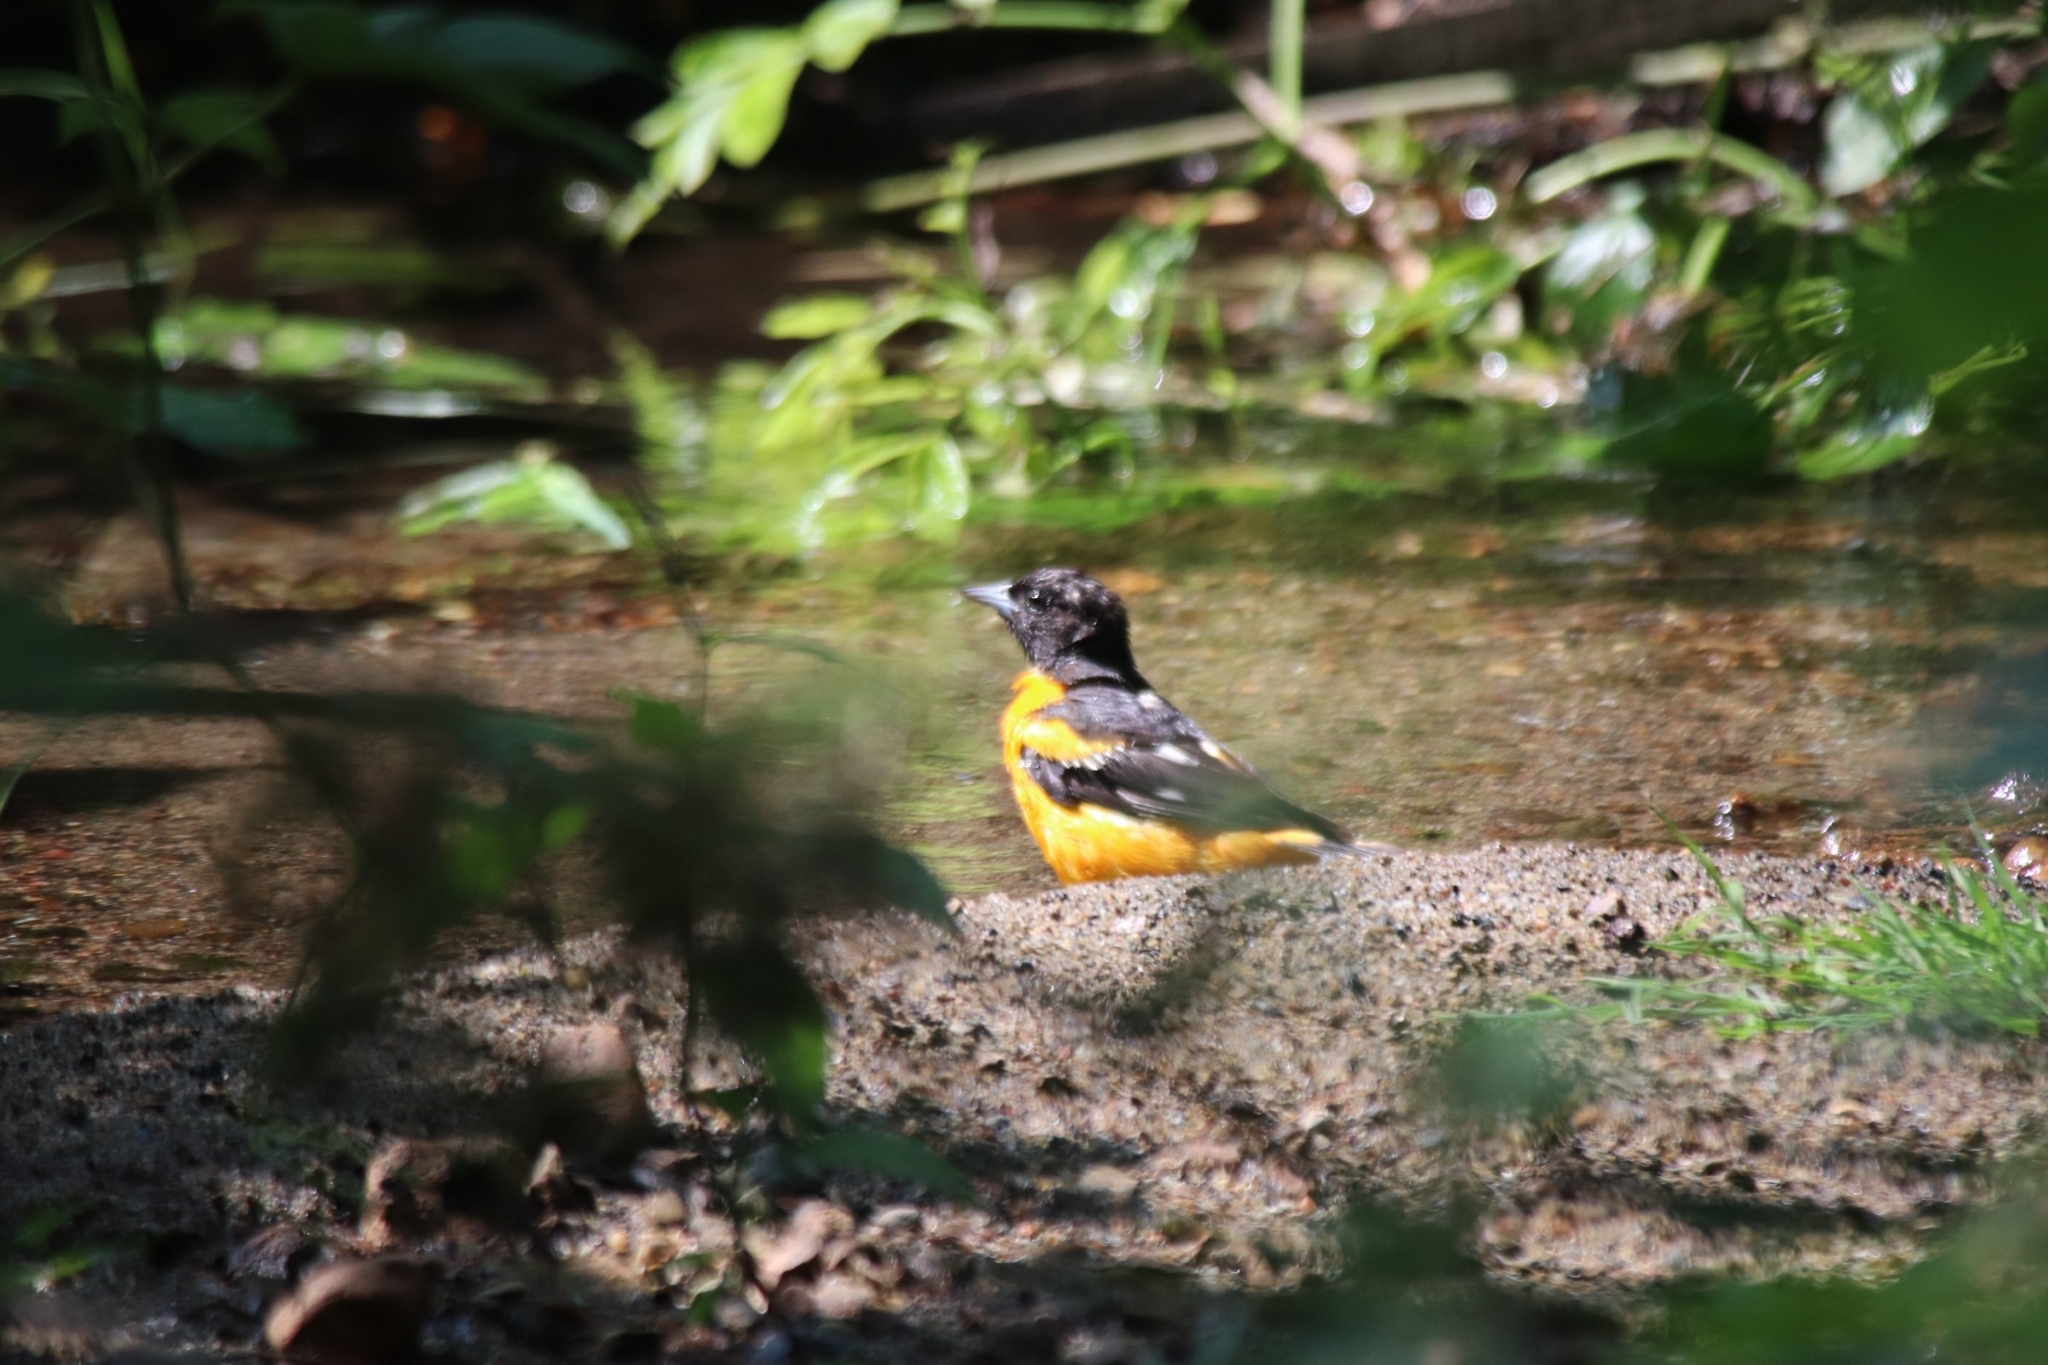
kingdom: Animalia
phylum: Chordata
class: Aves
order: Passeriformes
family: Icteridae
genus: Icterus
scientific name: Icterus galbula
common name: Baltimore oriole
